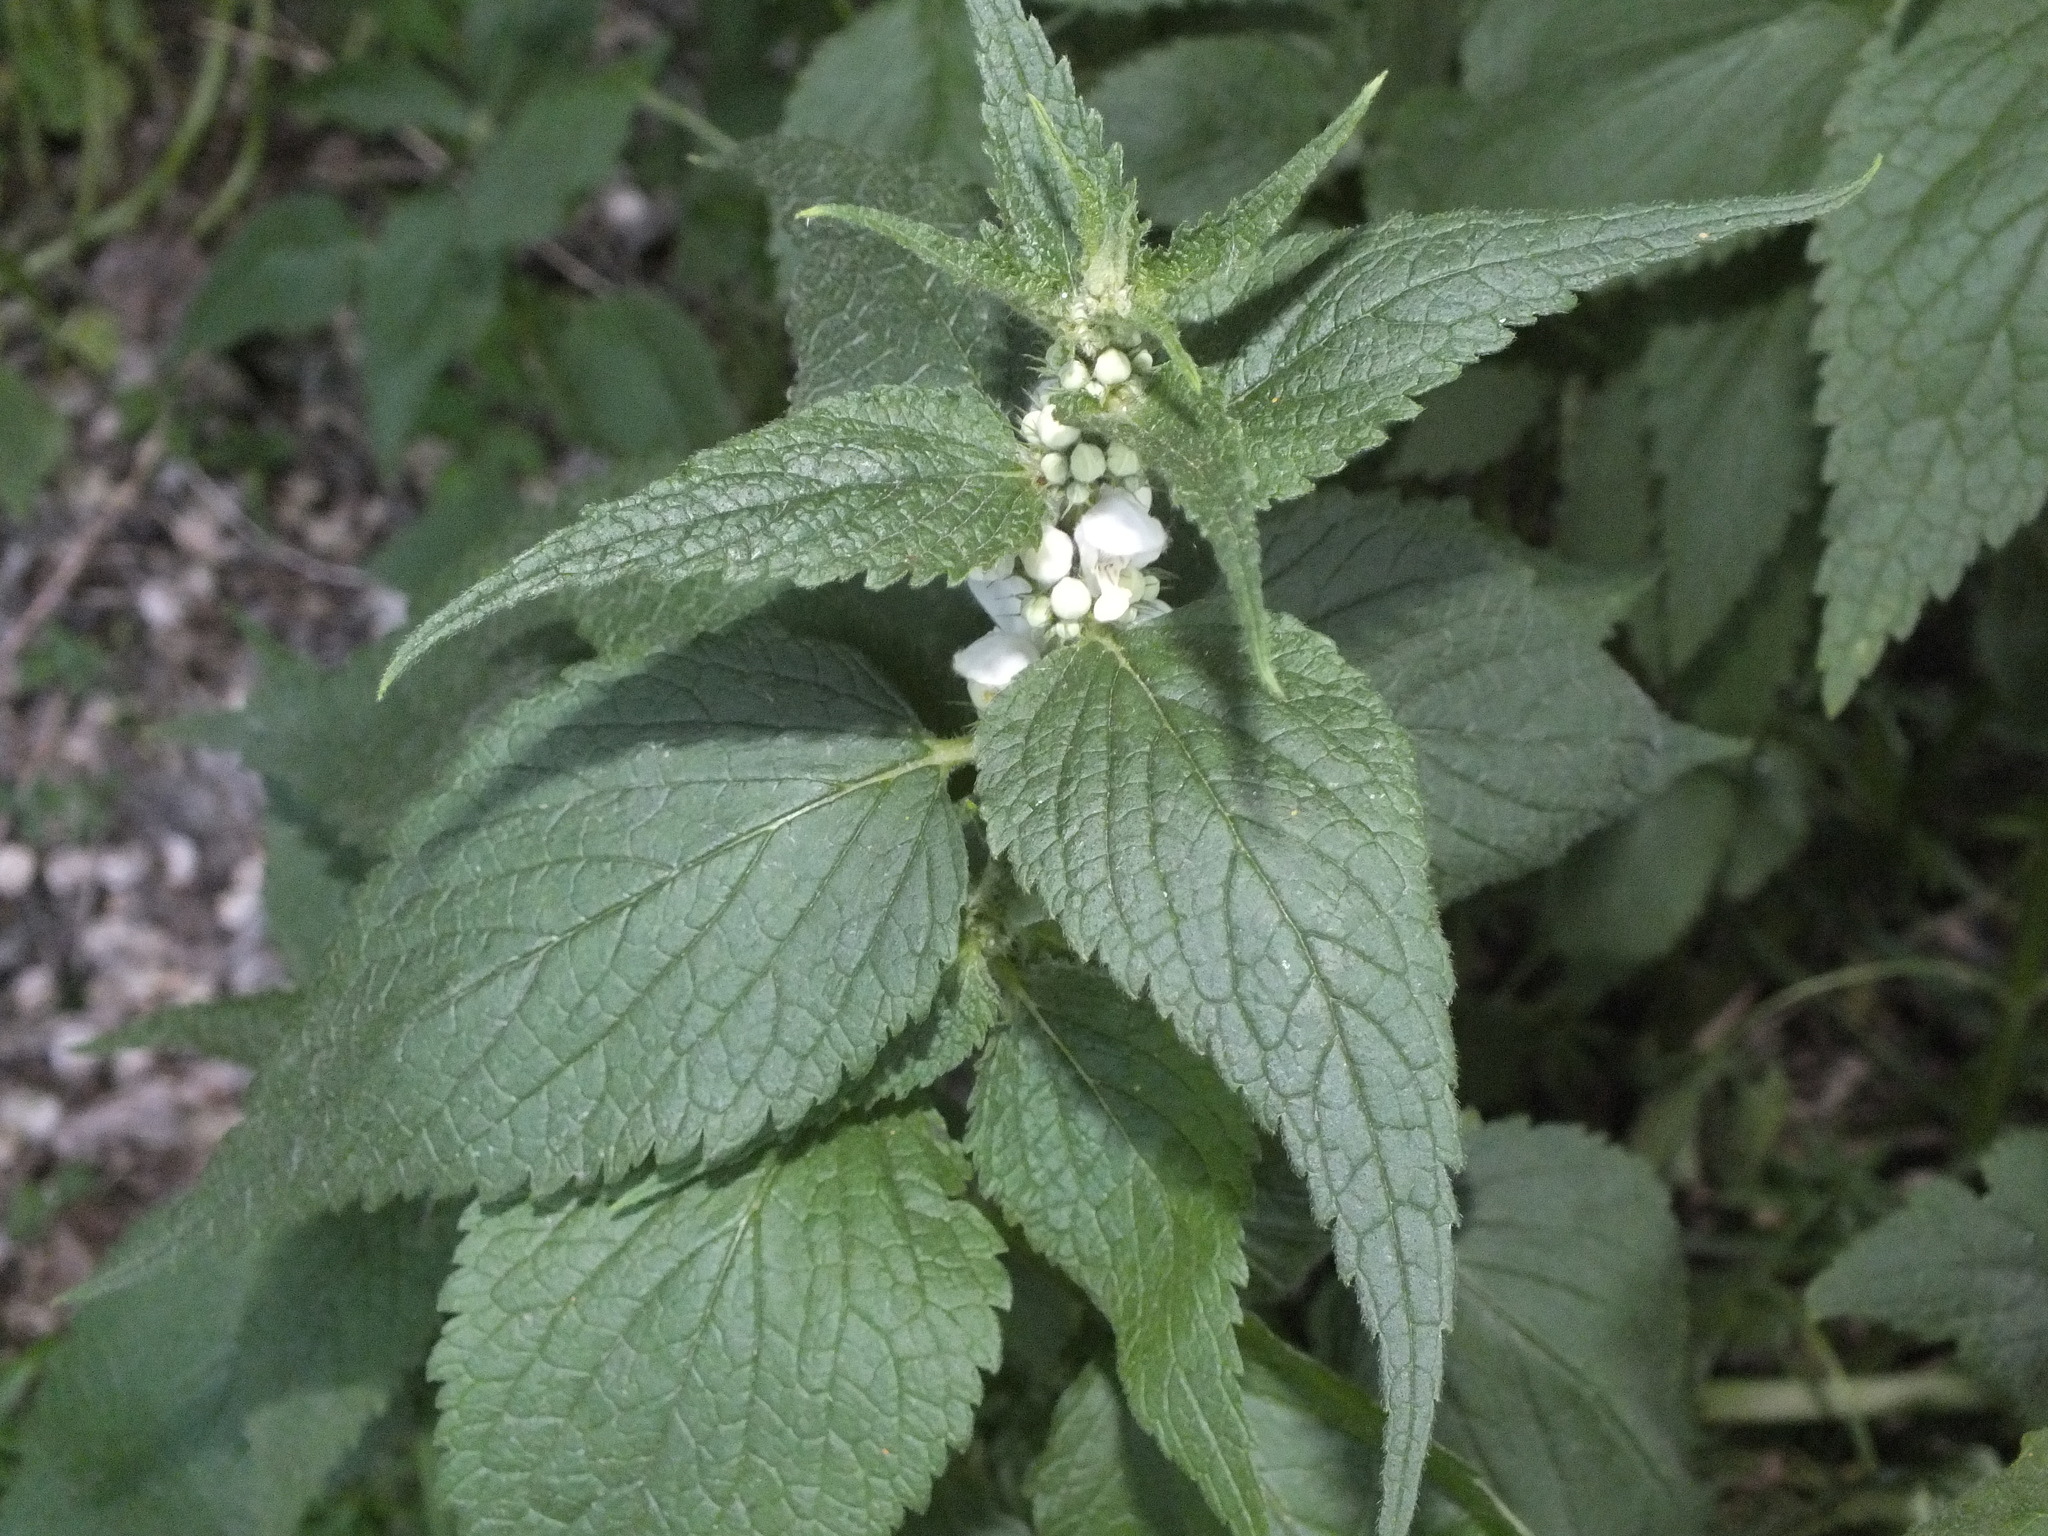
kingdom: Plantae
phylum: Tracheophyta
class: Magnoliopsida
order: Lamiales
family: Lamiaceae
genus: Lamium
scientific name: Lamium album
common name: White dead-nettle
